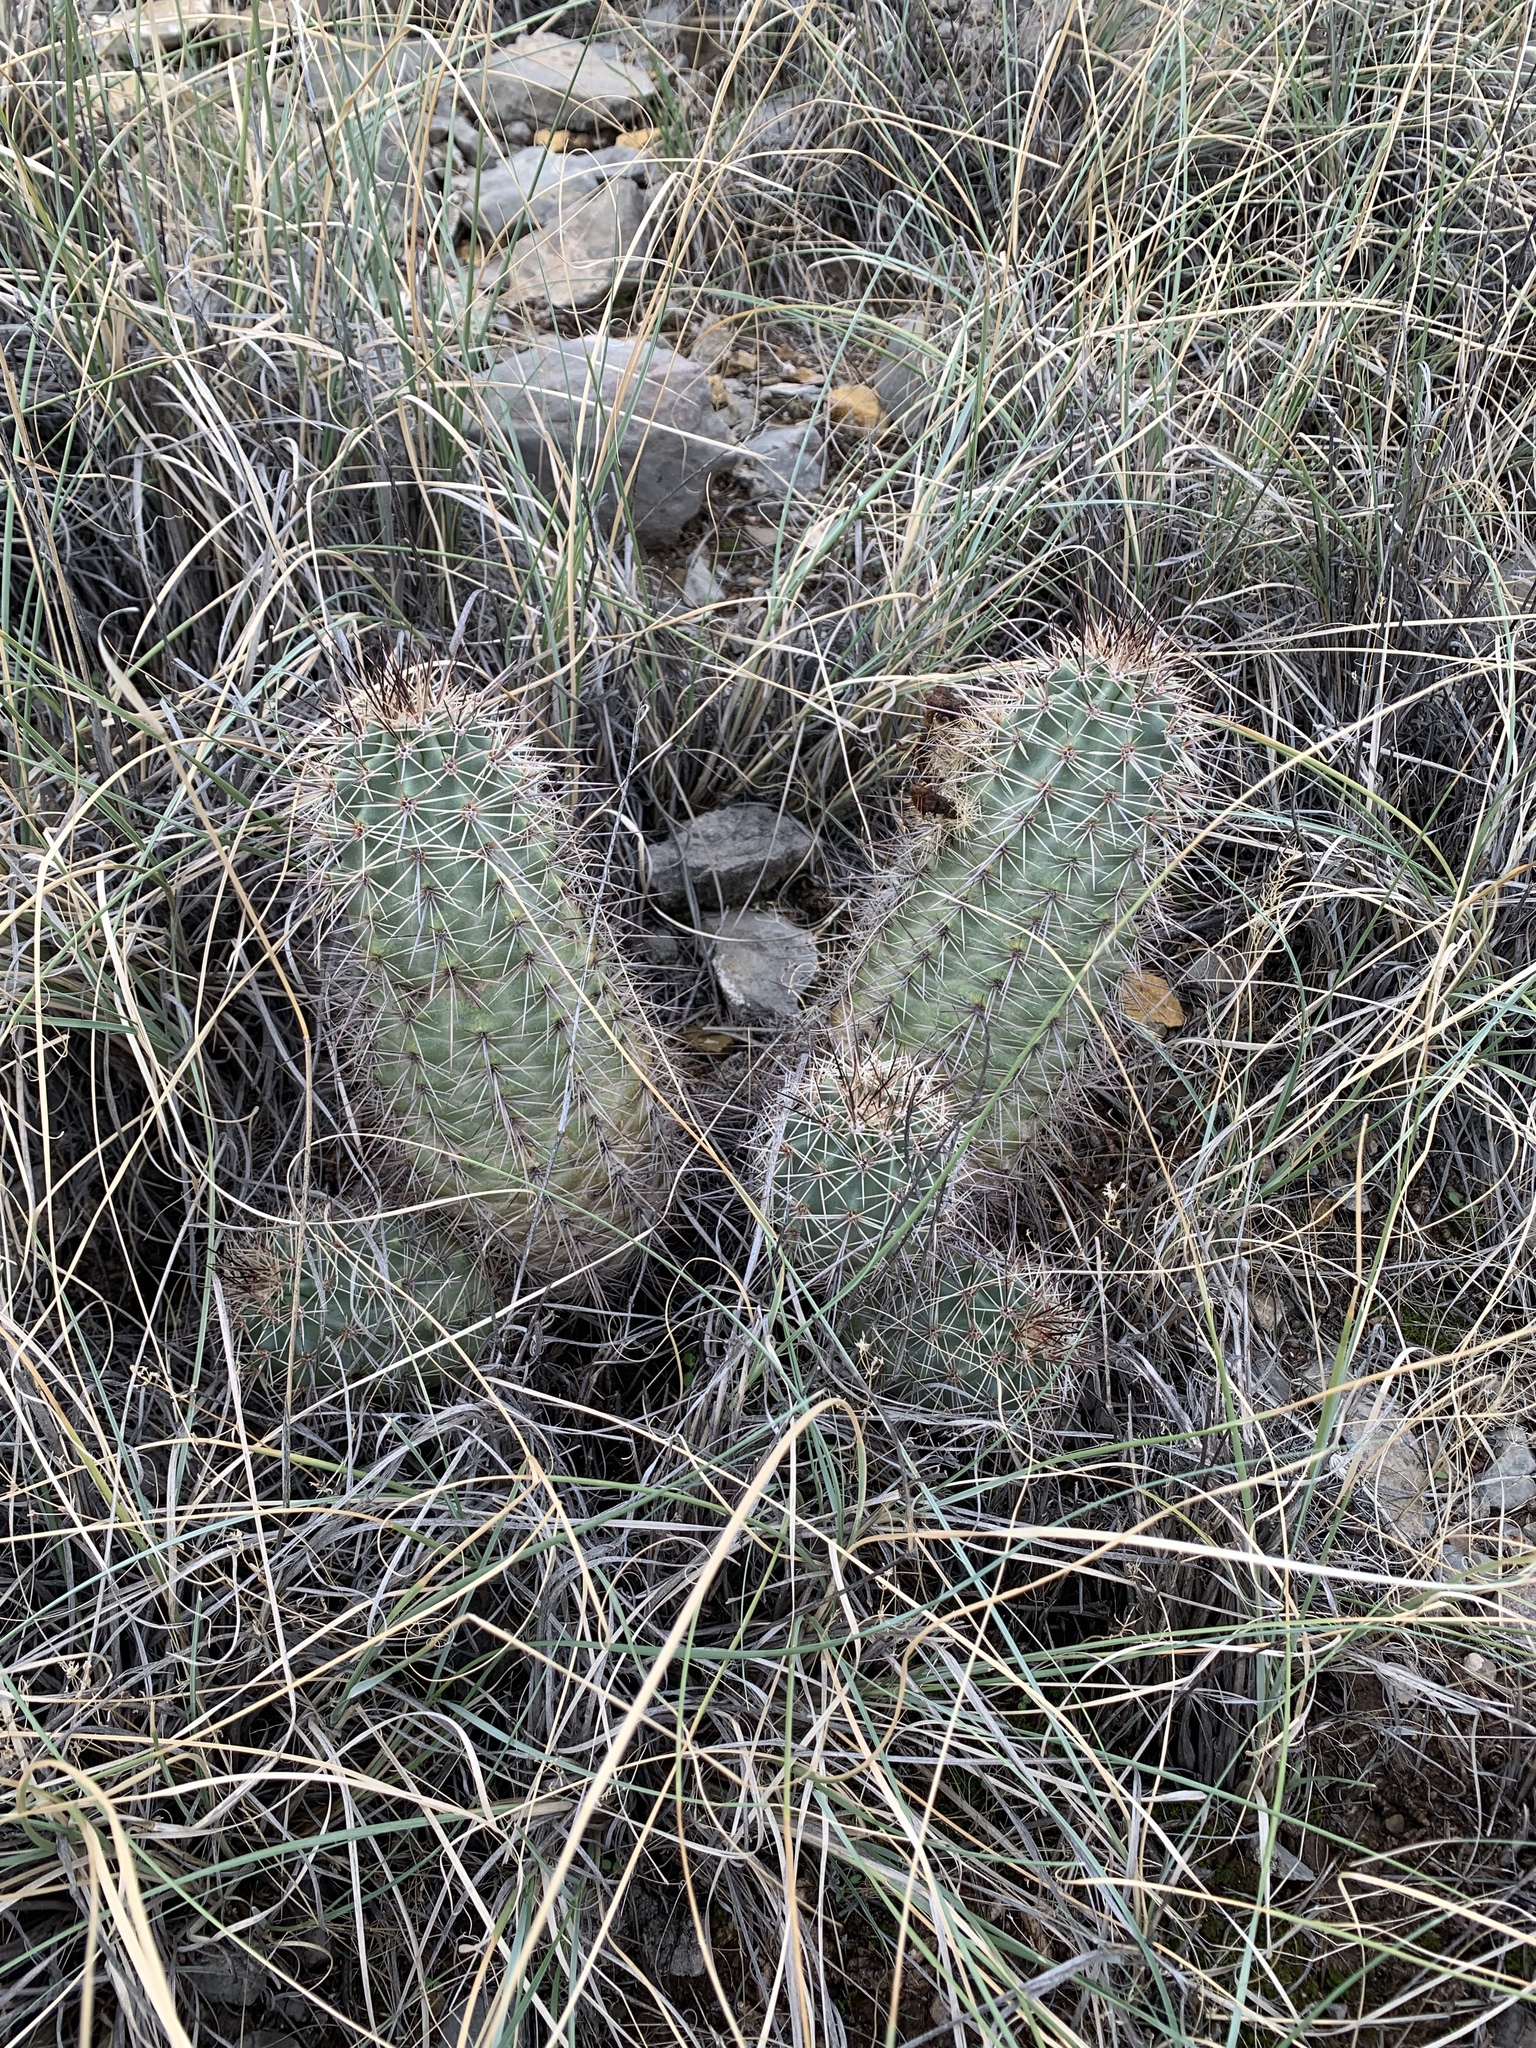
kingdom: Plantae
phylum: Tracheophyta
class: Magnoliopsida
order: Caryophyllales
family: Cactaceae
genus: Echinocereus
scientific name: Echinocereus roetteri
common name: Lloyd's hedgehog cactus
